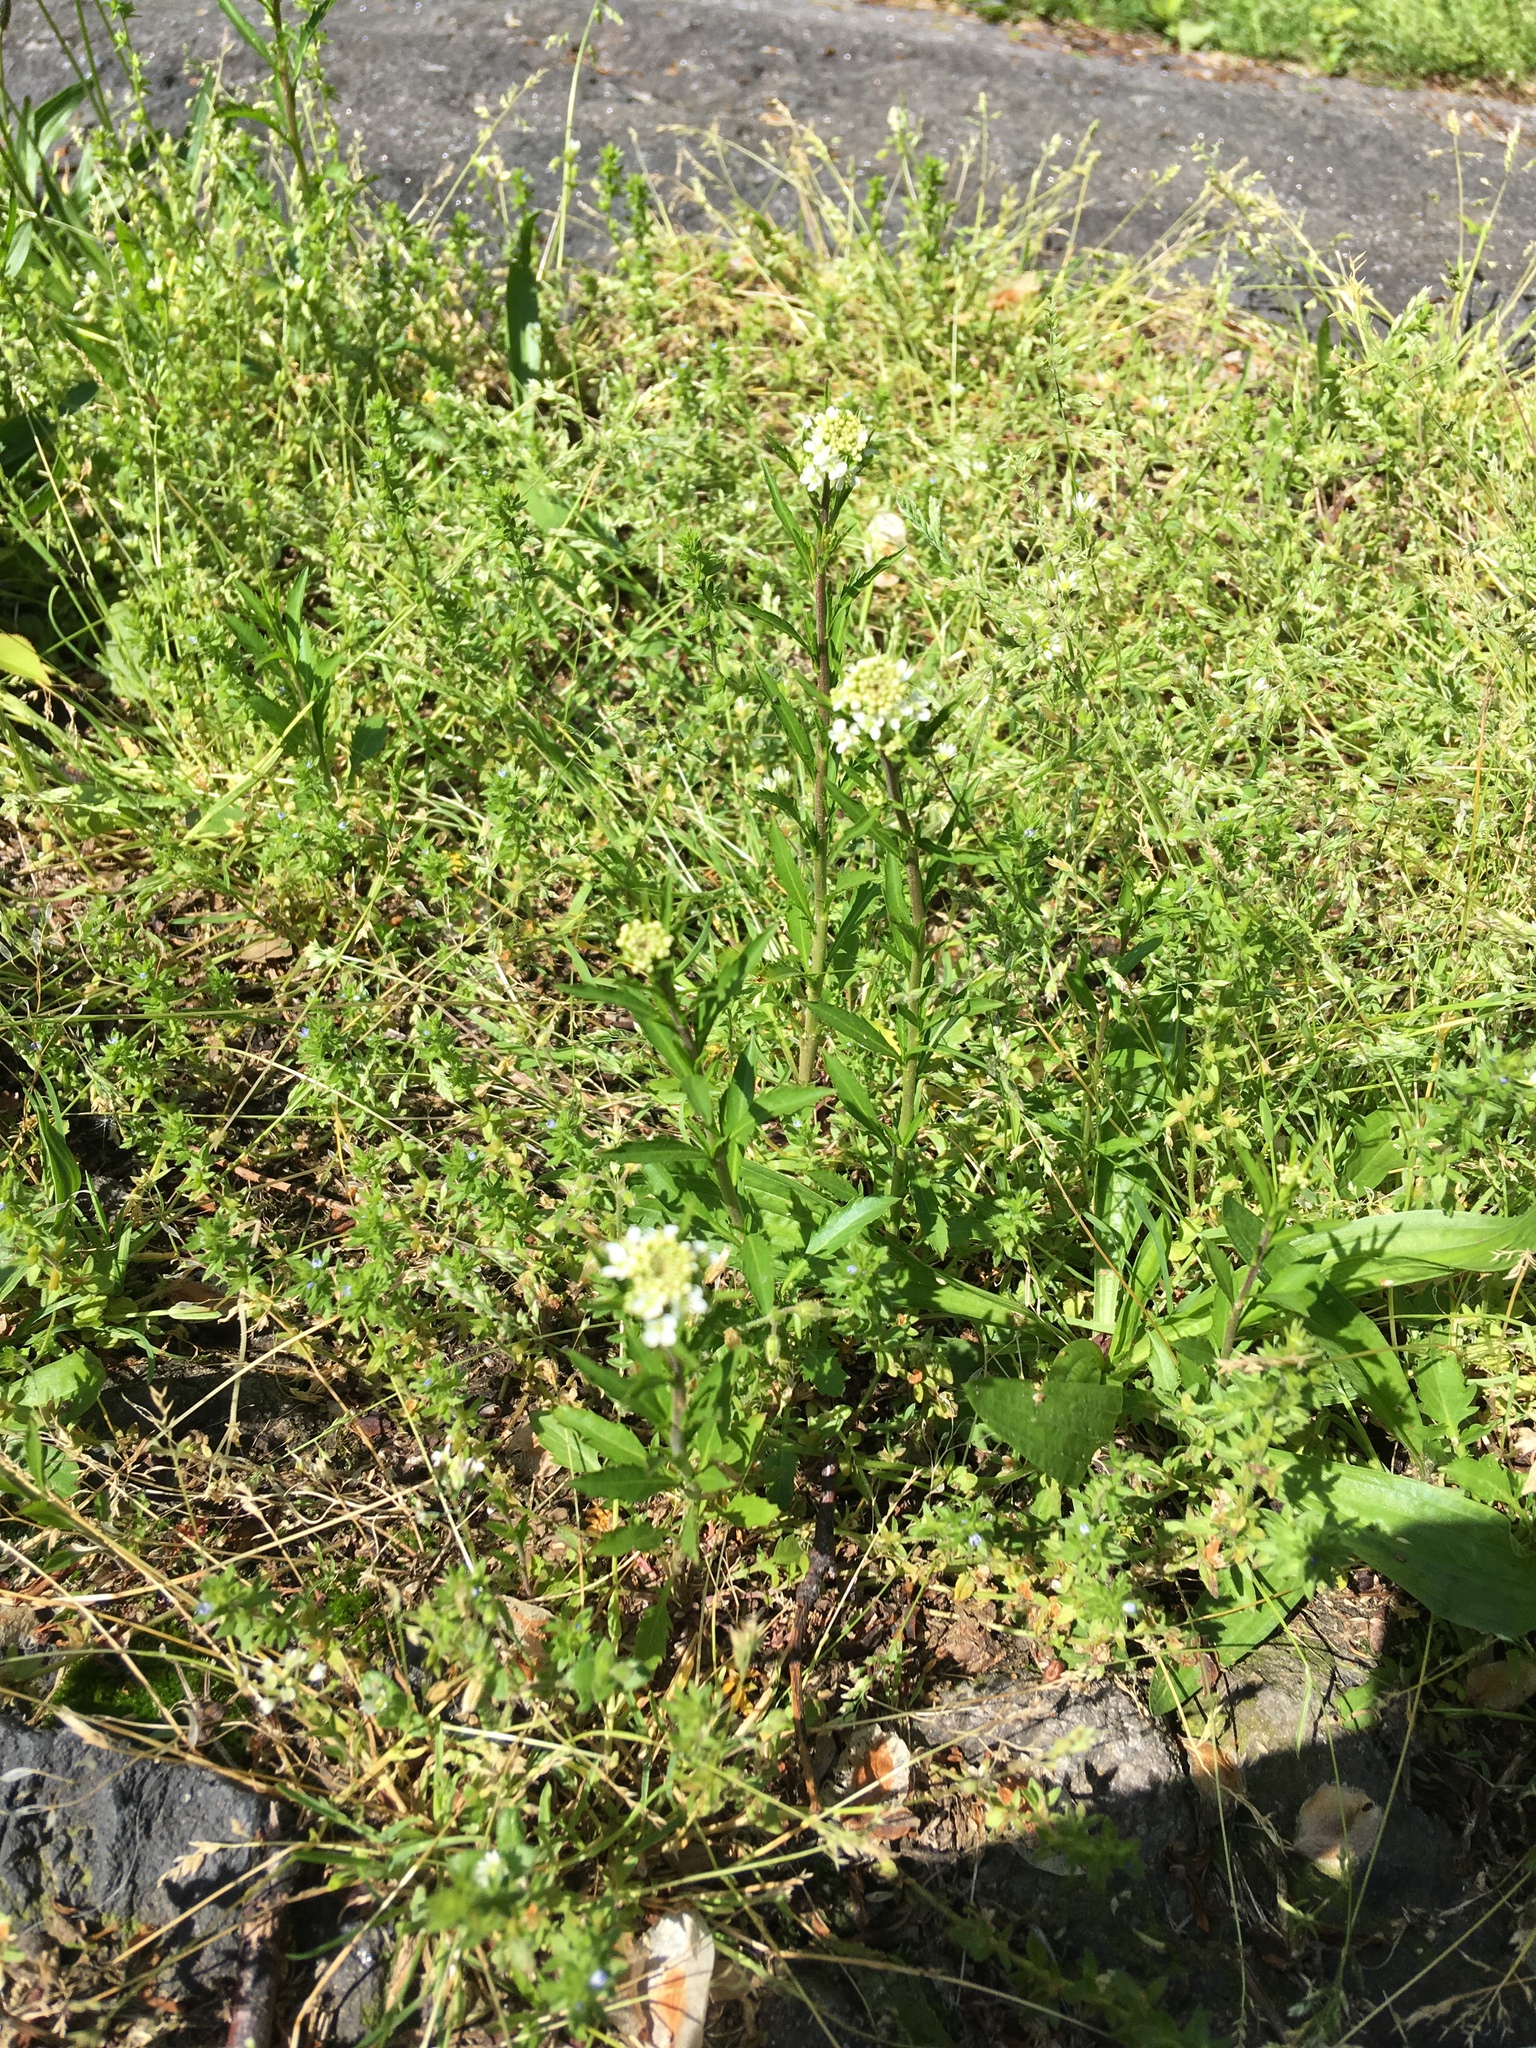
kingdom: Plantae
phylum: Tracheophyta
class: Magnoliopsida
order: Brassicales
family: Brassicaceae
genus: Lepidium
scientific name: Lepidium virginicum
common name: Least pepperwort
